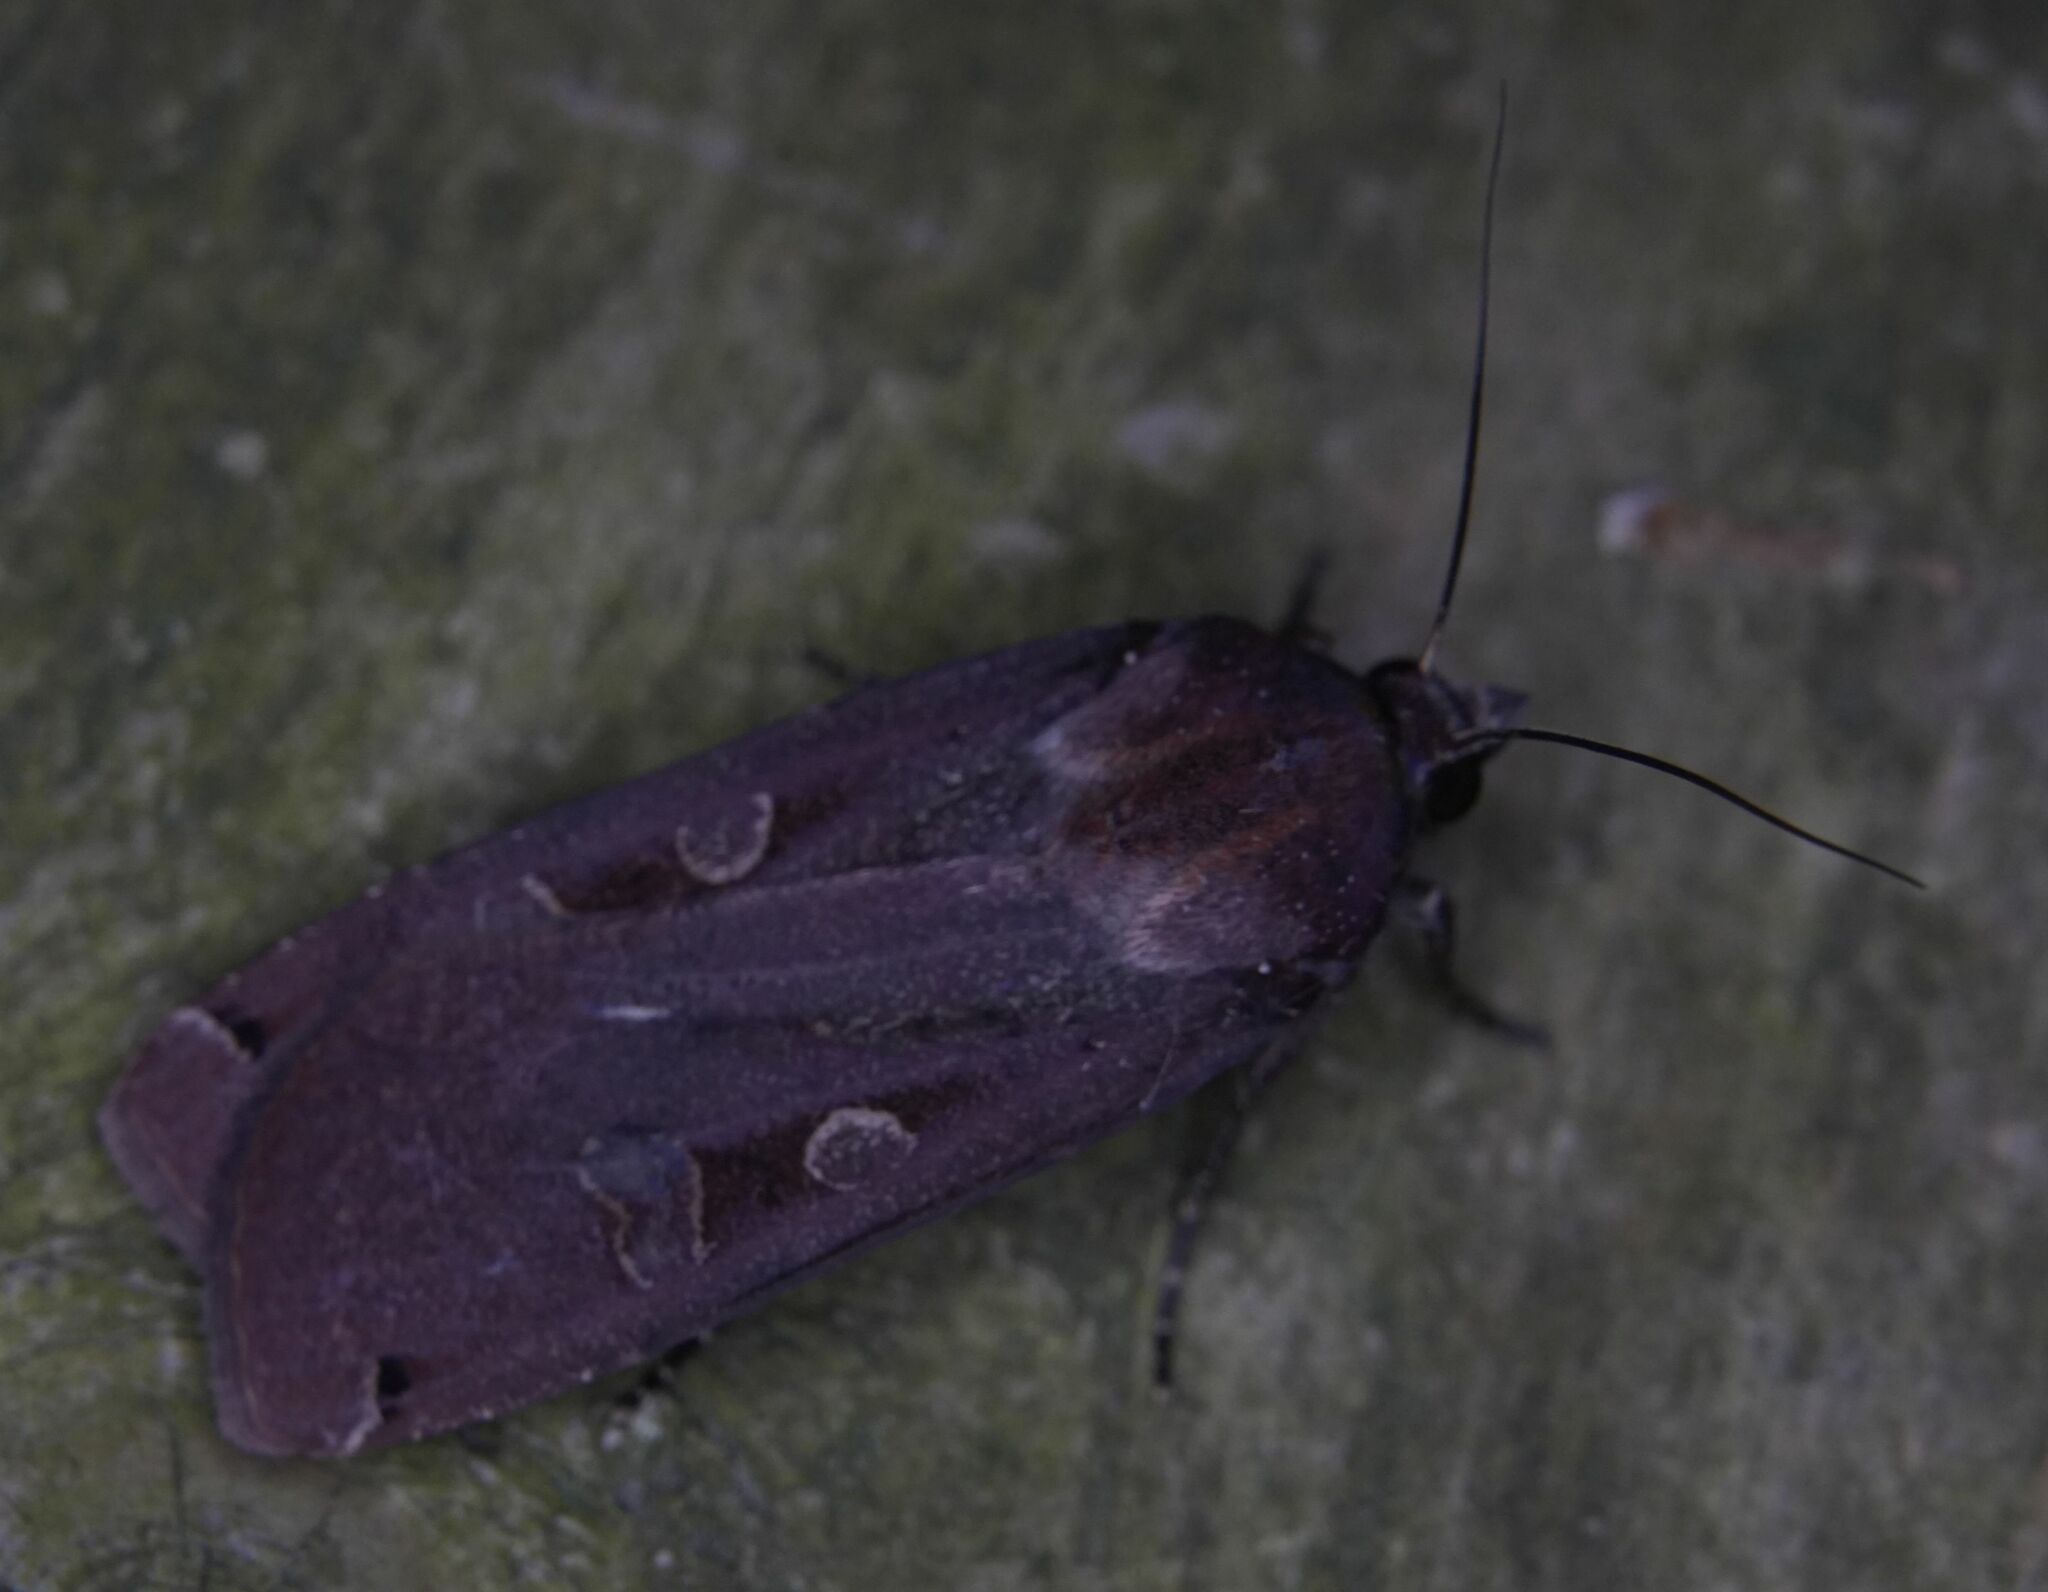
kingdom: Animalia
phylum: Arthropoda
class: Insecta
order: Lepidoptera
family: Noctuidae
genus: Noctua
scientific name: Noctua pronuba
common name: Large yellow underwing
